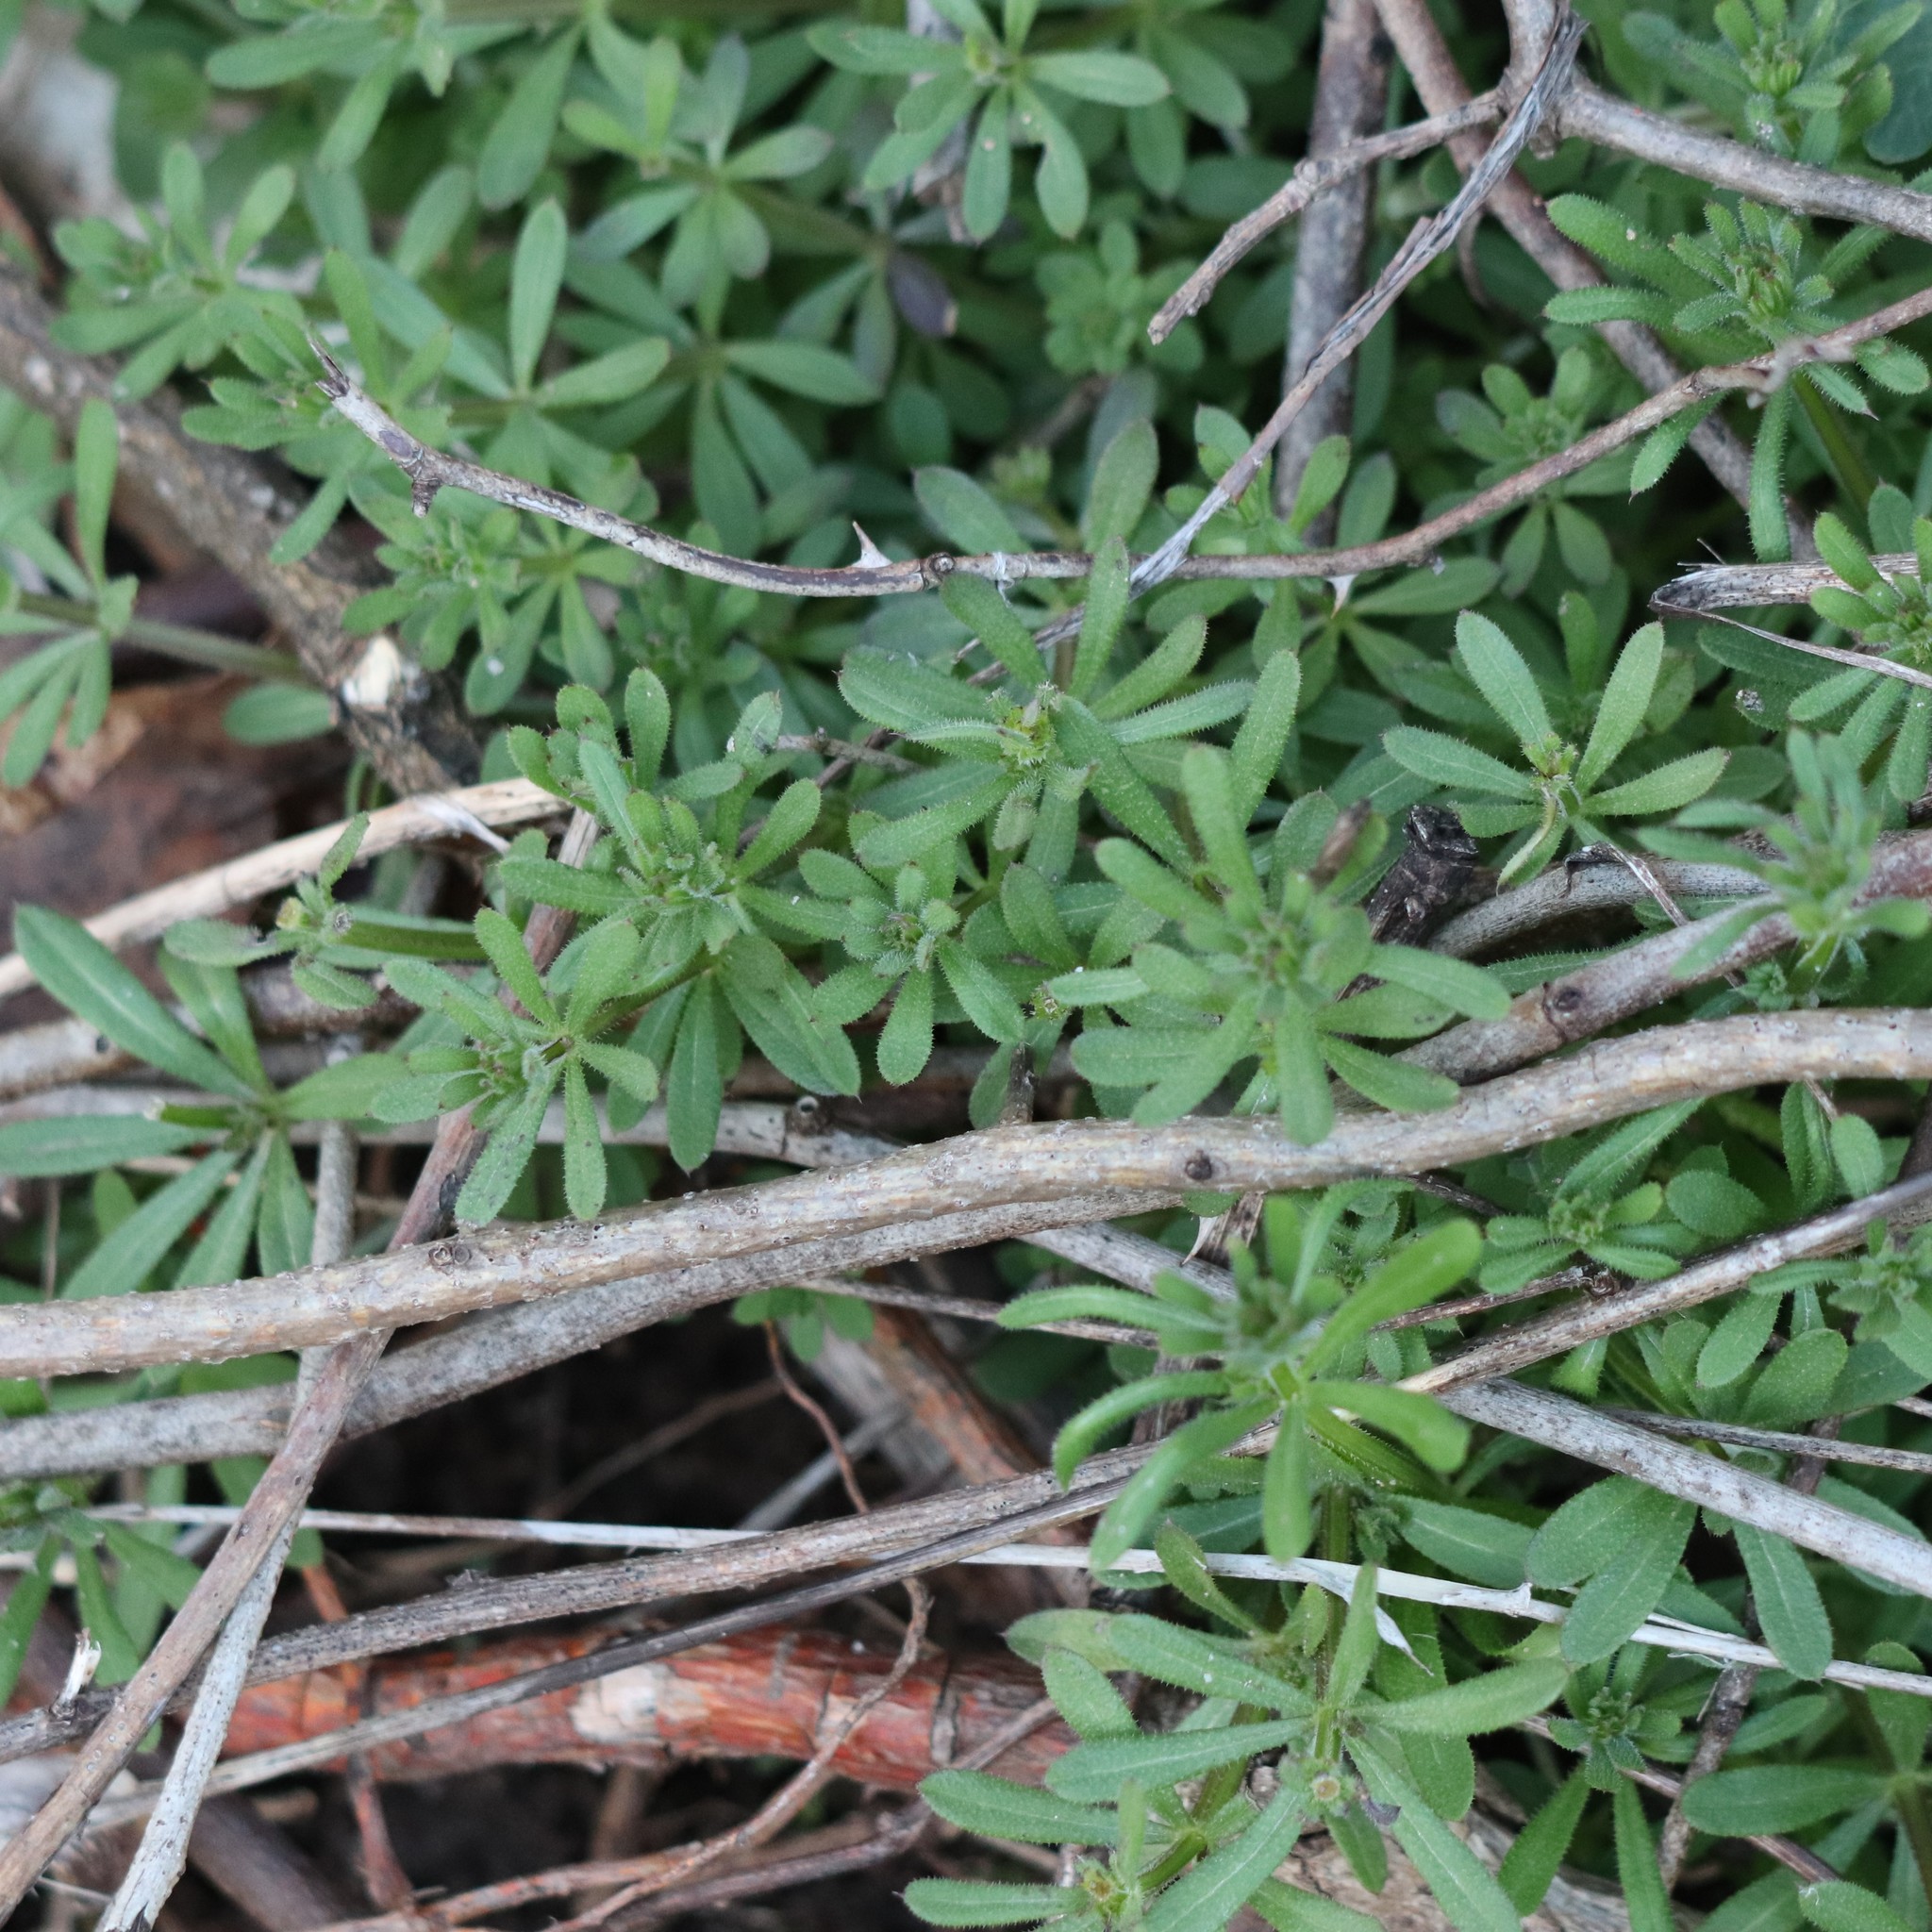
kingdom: Plantae
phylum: Tracheophyta
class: Magnoliopsida
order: Gentianales
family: Rubiaceae
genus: Galium
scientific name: Galium aparine
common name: Cleavers
